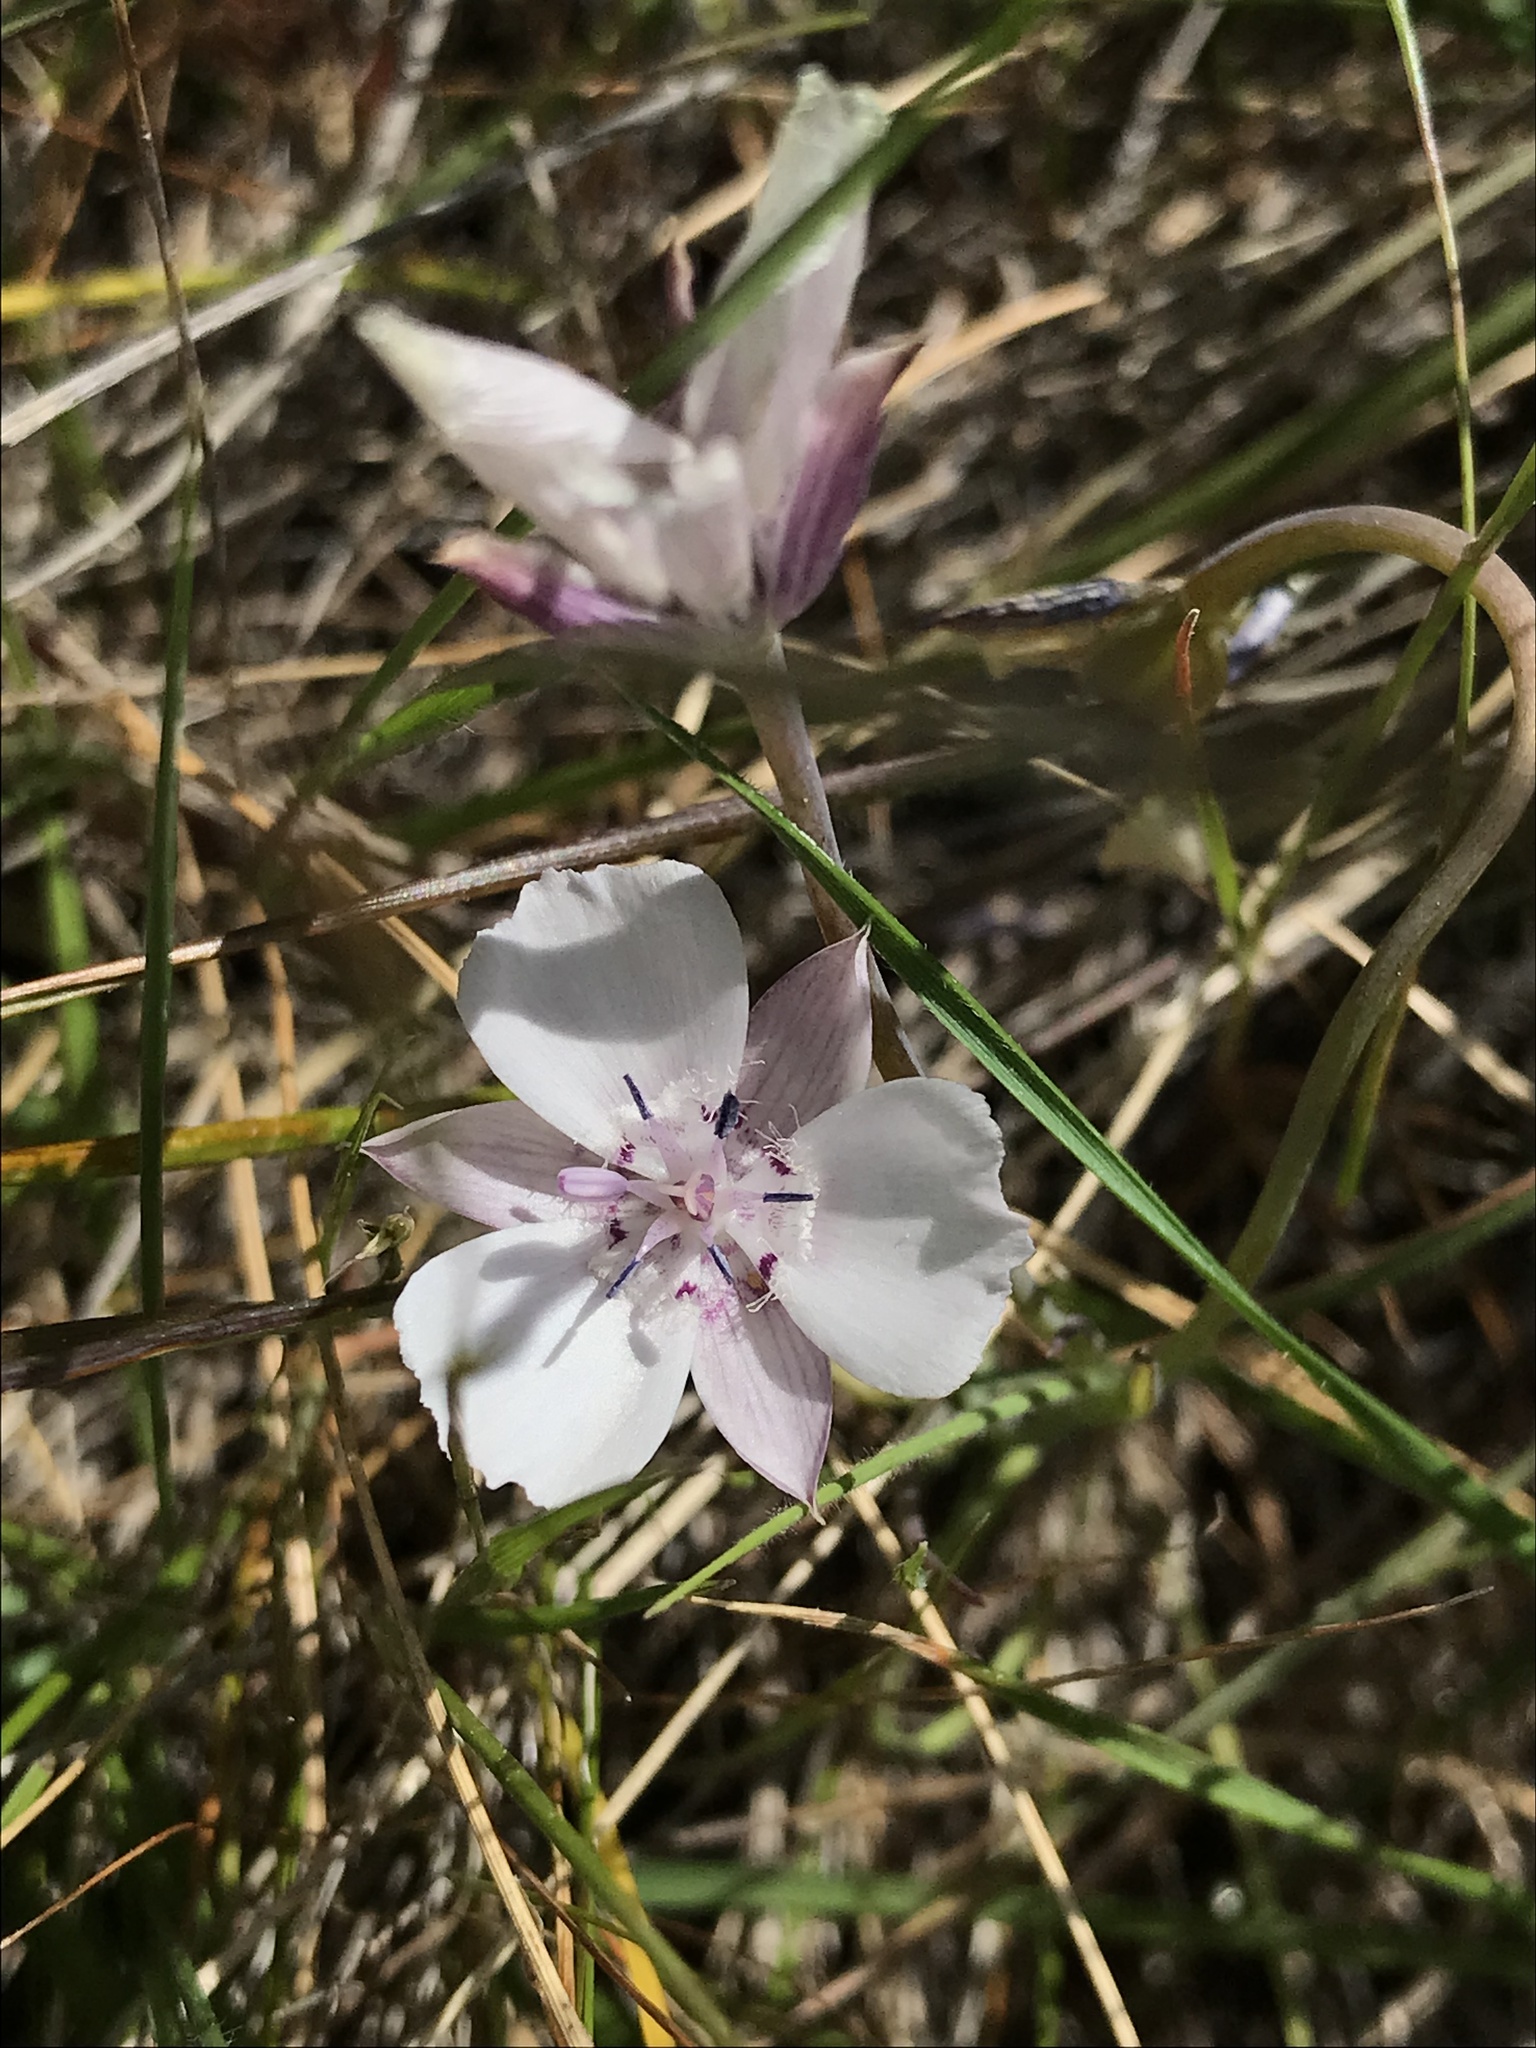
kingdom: Plantae
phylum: Tracheophyta
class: Liliopsida
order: Liliales
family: Liliaceae
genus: Calochortus
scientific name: Calochortus umbellatus
